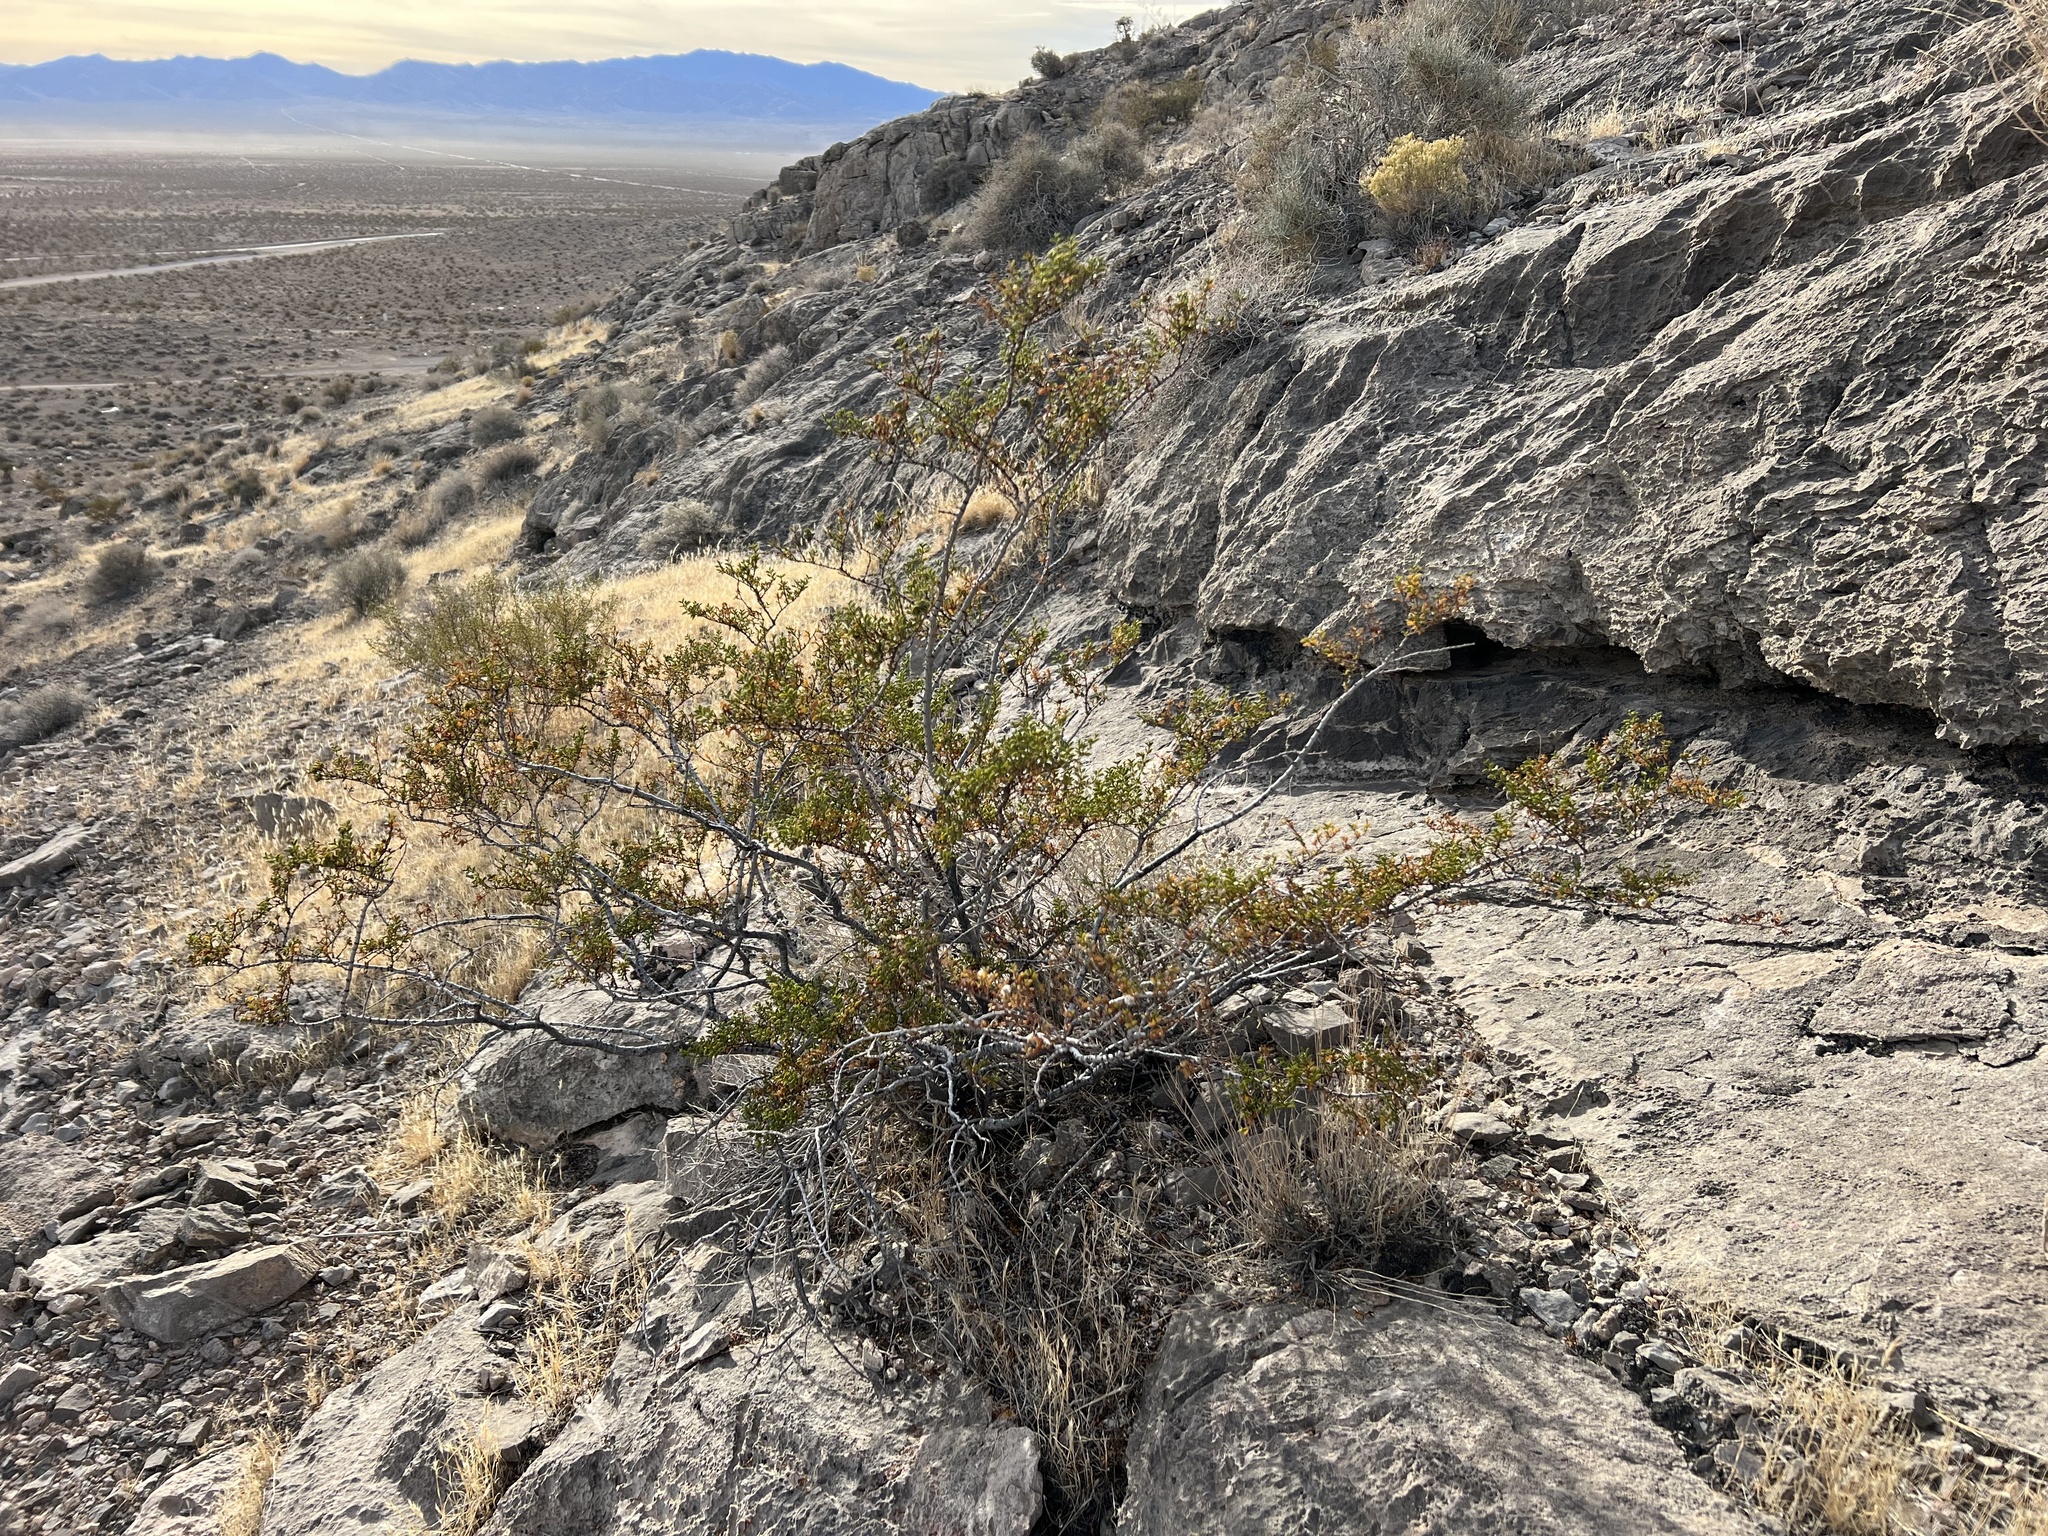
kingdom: Plantae
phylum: Tracheophyta
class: Magnoliopsida
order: Zygophyllales
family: Zygophyllaceae
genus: Larrea
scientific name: Larrea tridentata
